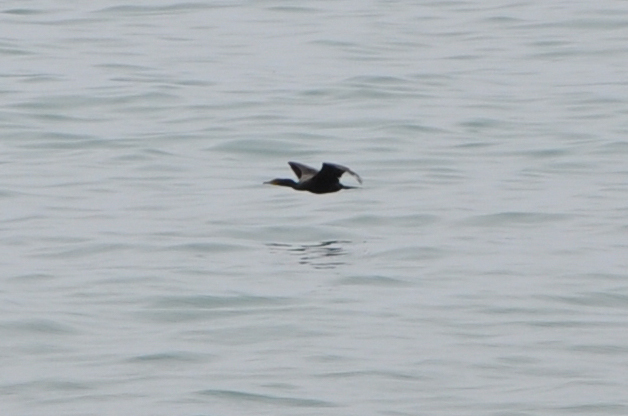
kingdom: Animalia
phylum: Chordata
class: Aves
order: Suliformes
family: Phalacrocoracidae
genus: Phalacrocorax
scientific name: Phalacrocorax auritus
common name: Double-crested cormorant
